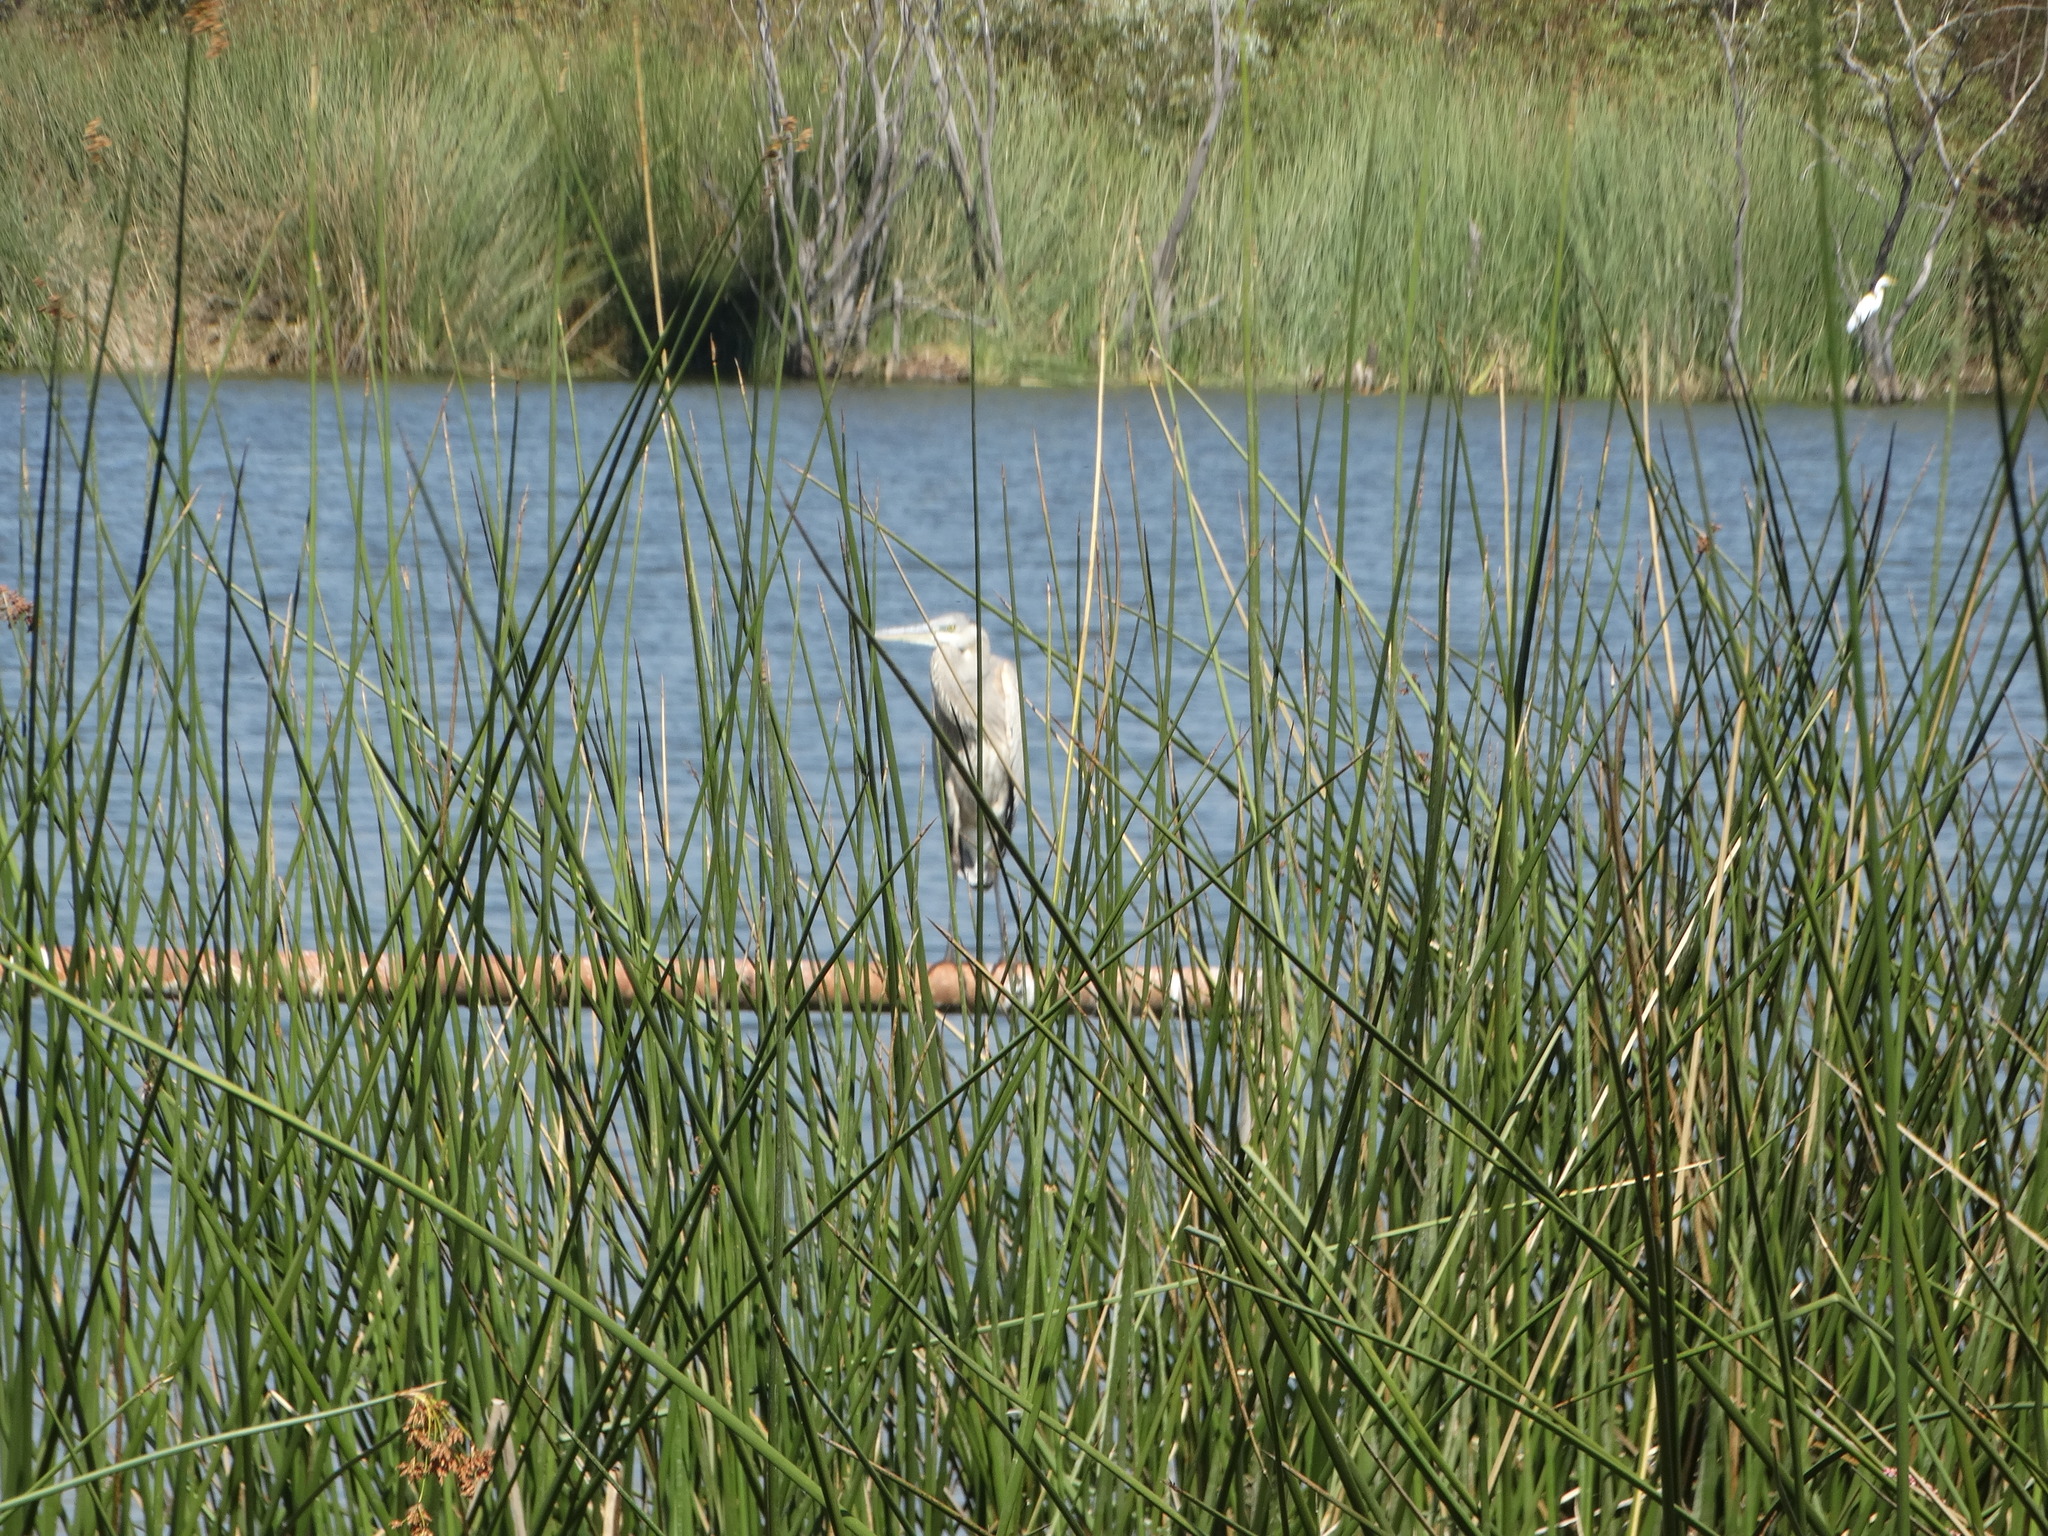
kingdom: Animalia
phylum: Chordata
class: Aves
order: Pelecaniformes
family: Ardeidae
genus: Ardea
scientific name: Ardea herodias
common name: Great blue heron
